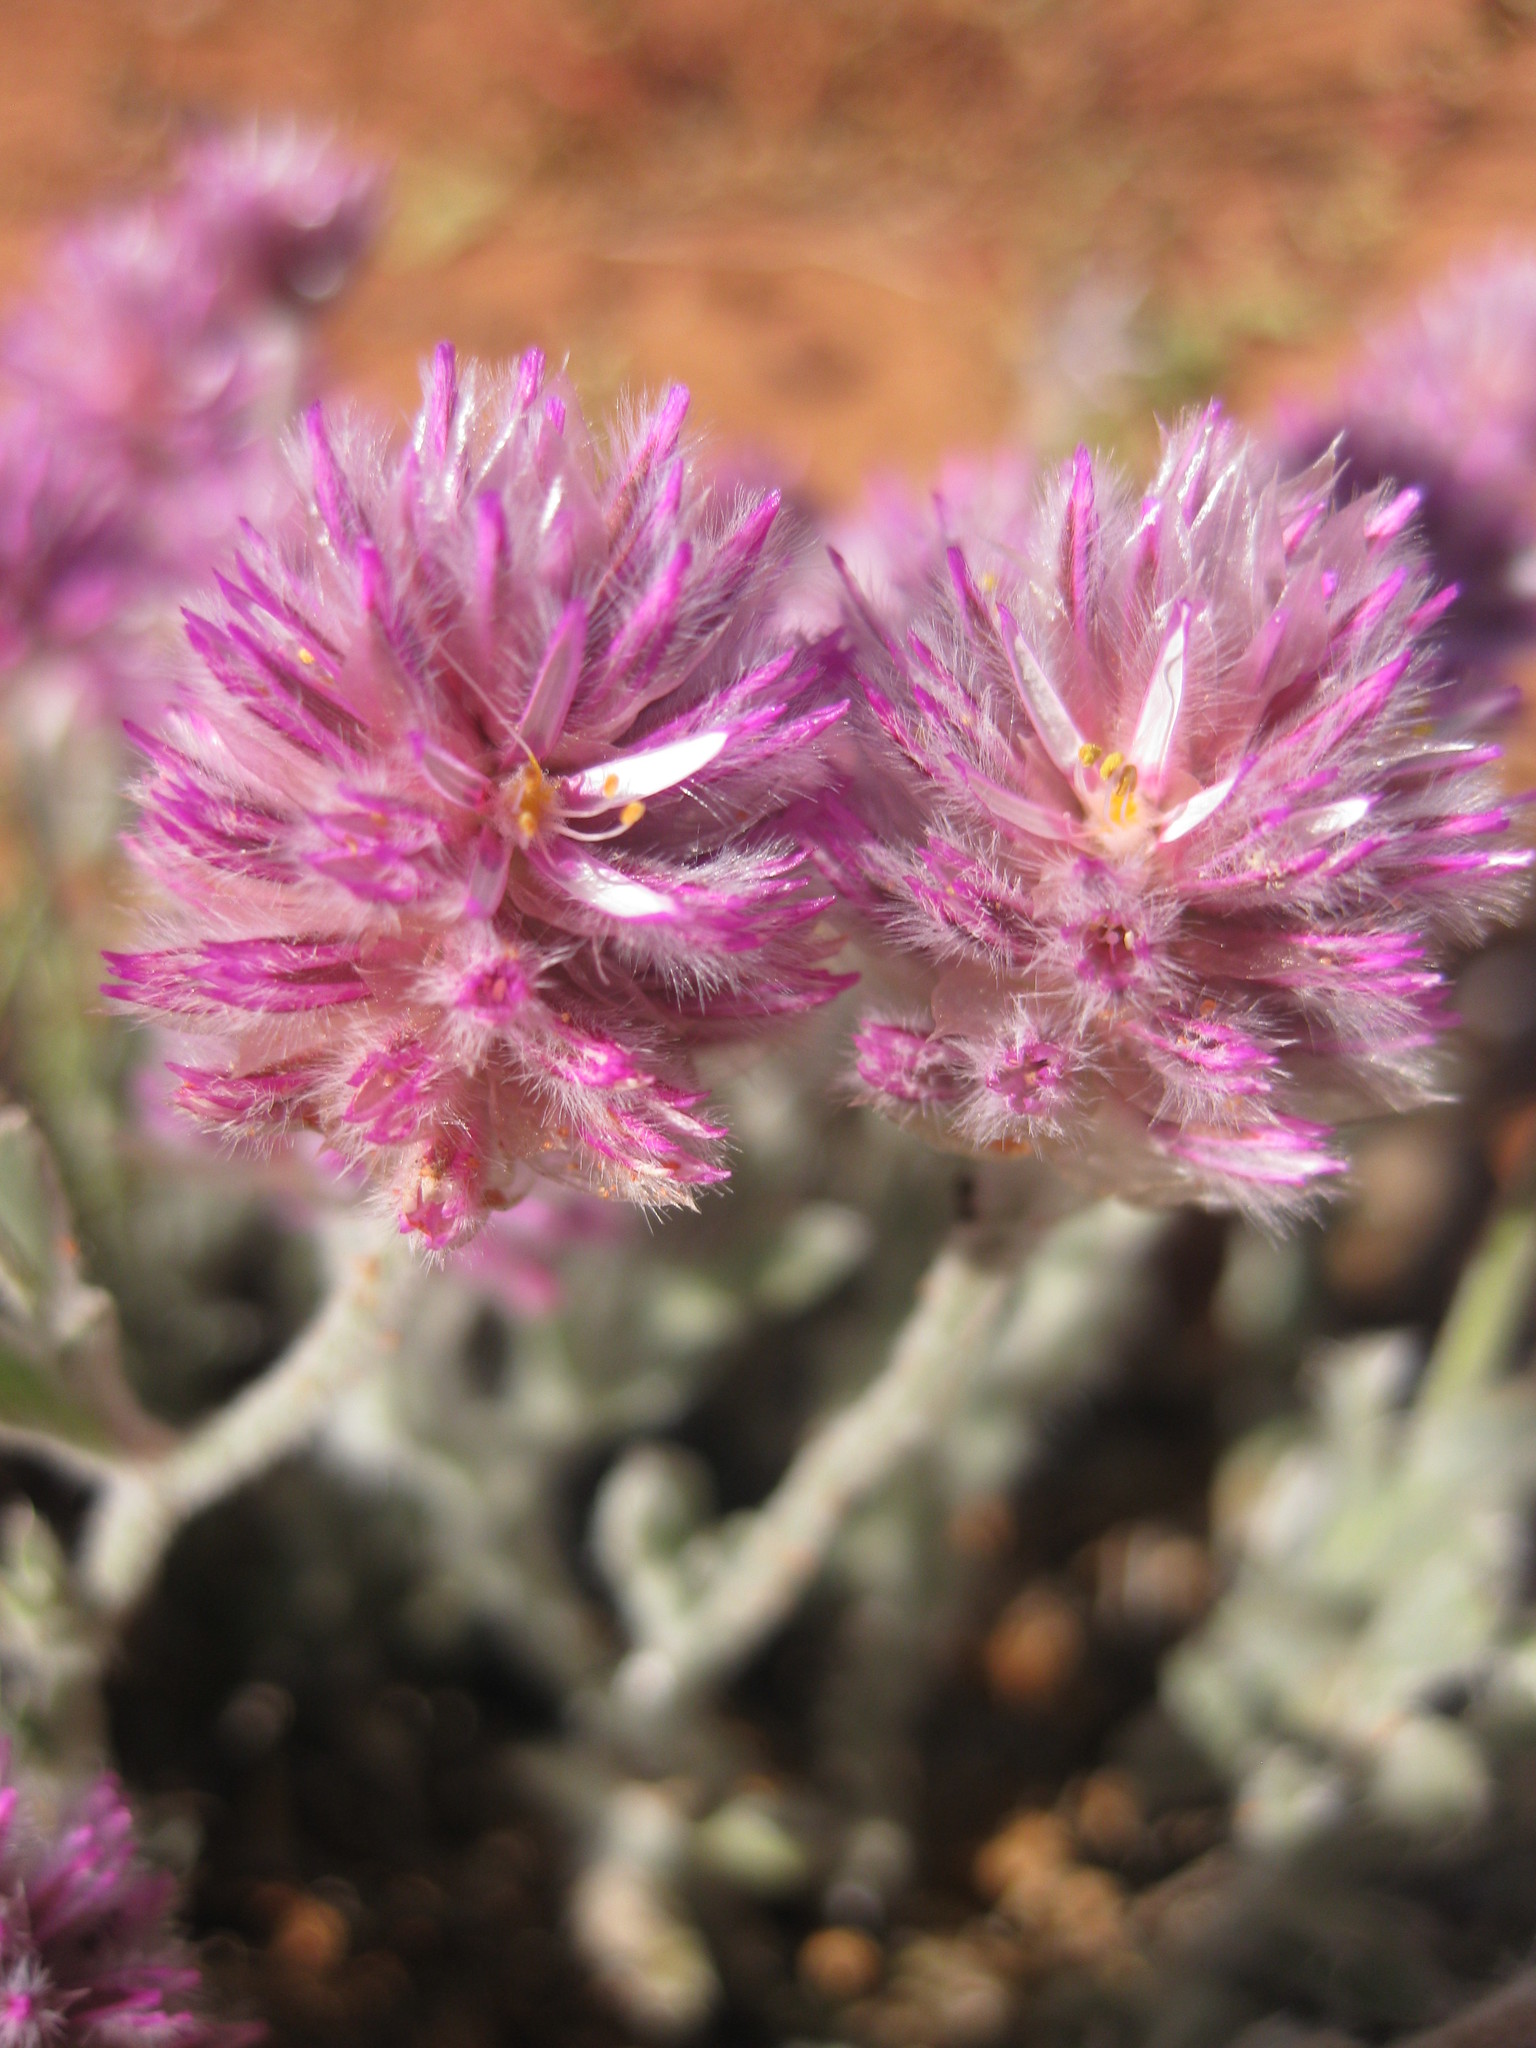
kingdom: Plantae
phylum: Tracheophyta
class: Magnoliopsida
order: Caryophyllales
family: Amaranthaceae
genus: Ptilotus
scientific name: Ptilotus helipteroides
